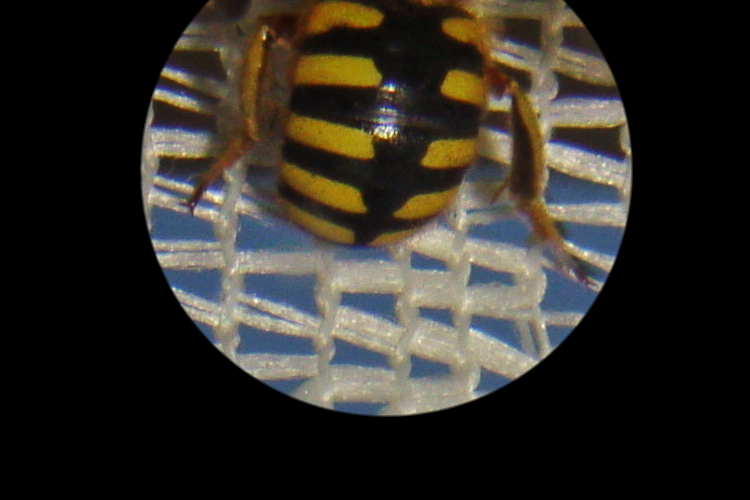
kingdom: Animalia
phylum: Arthropoda
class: Insecta
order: Hymenoptera
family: Megachilidae
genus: Anthidium
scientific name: Anthidium manicatum
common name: Wool carder bee
